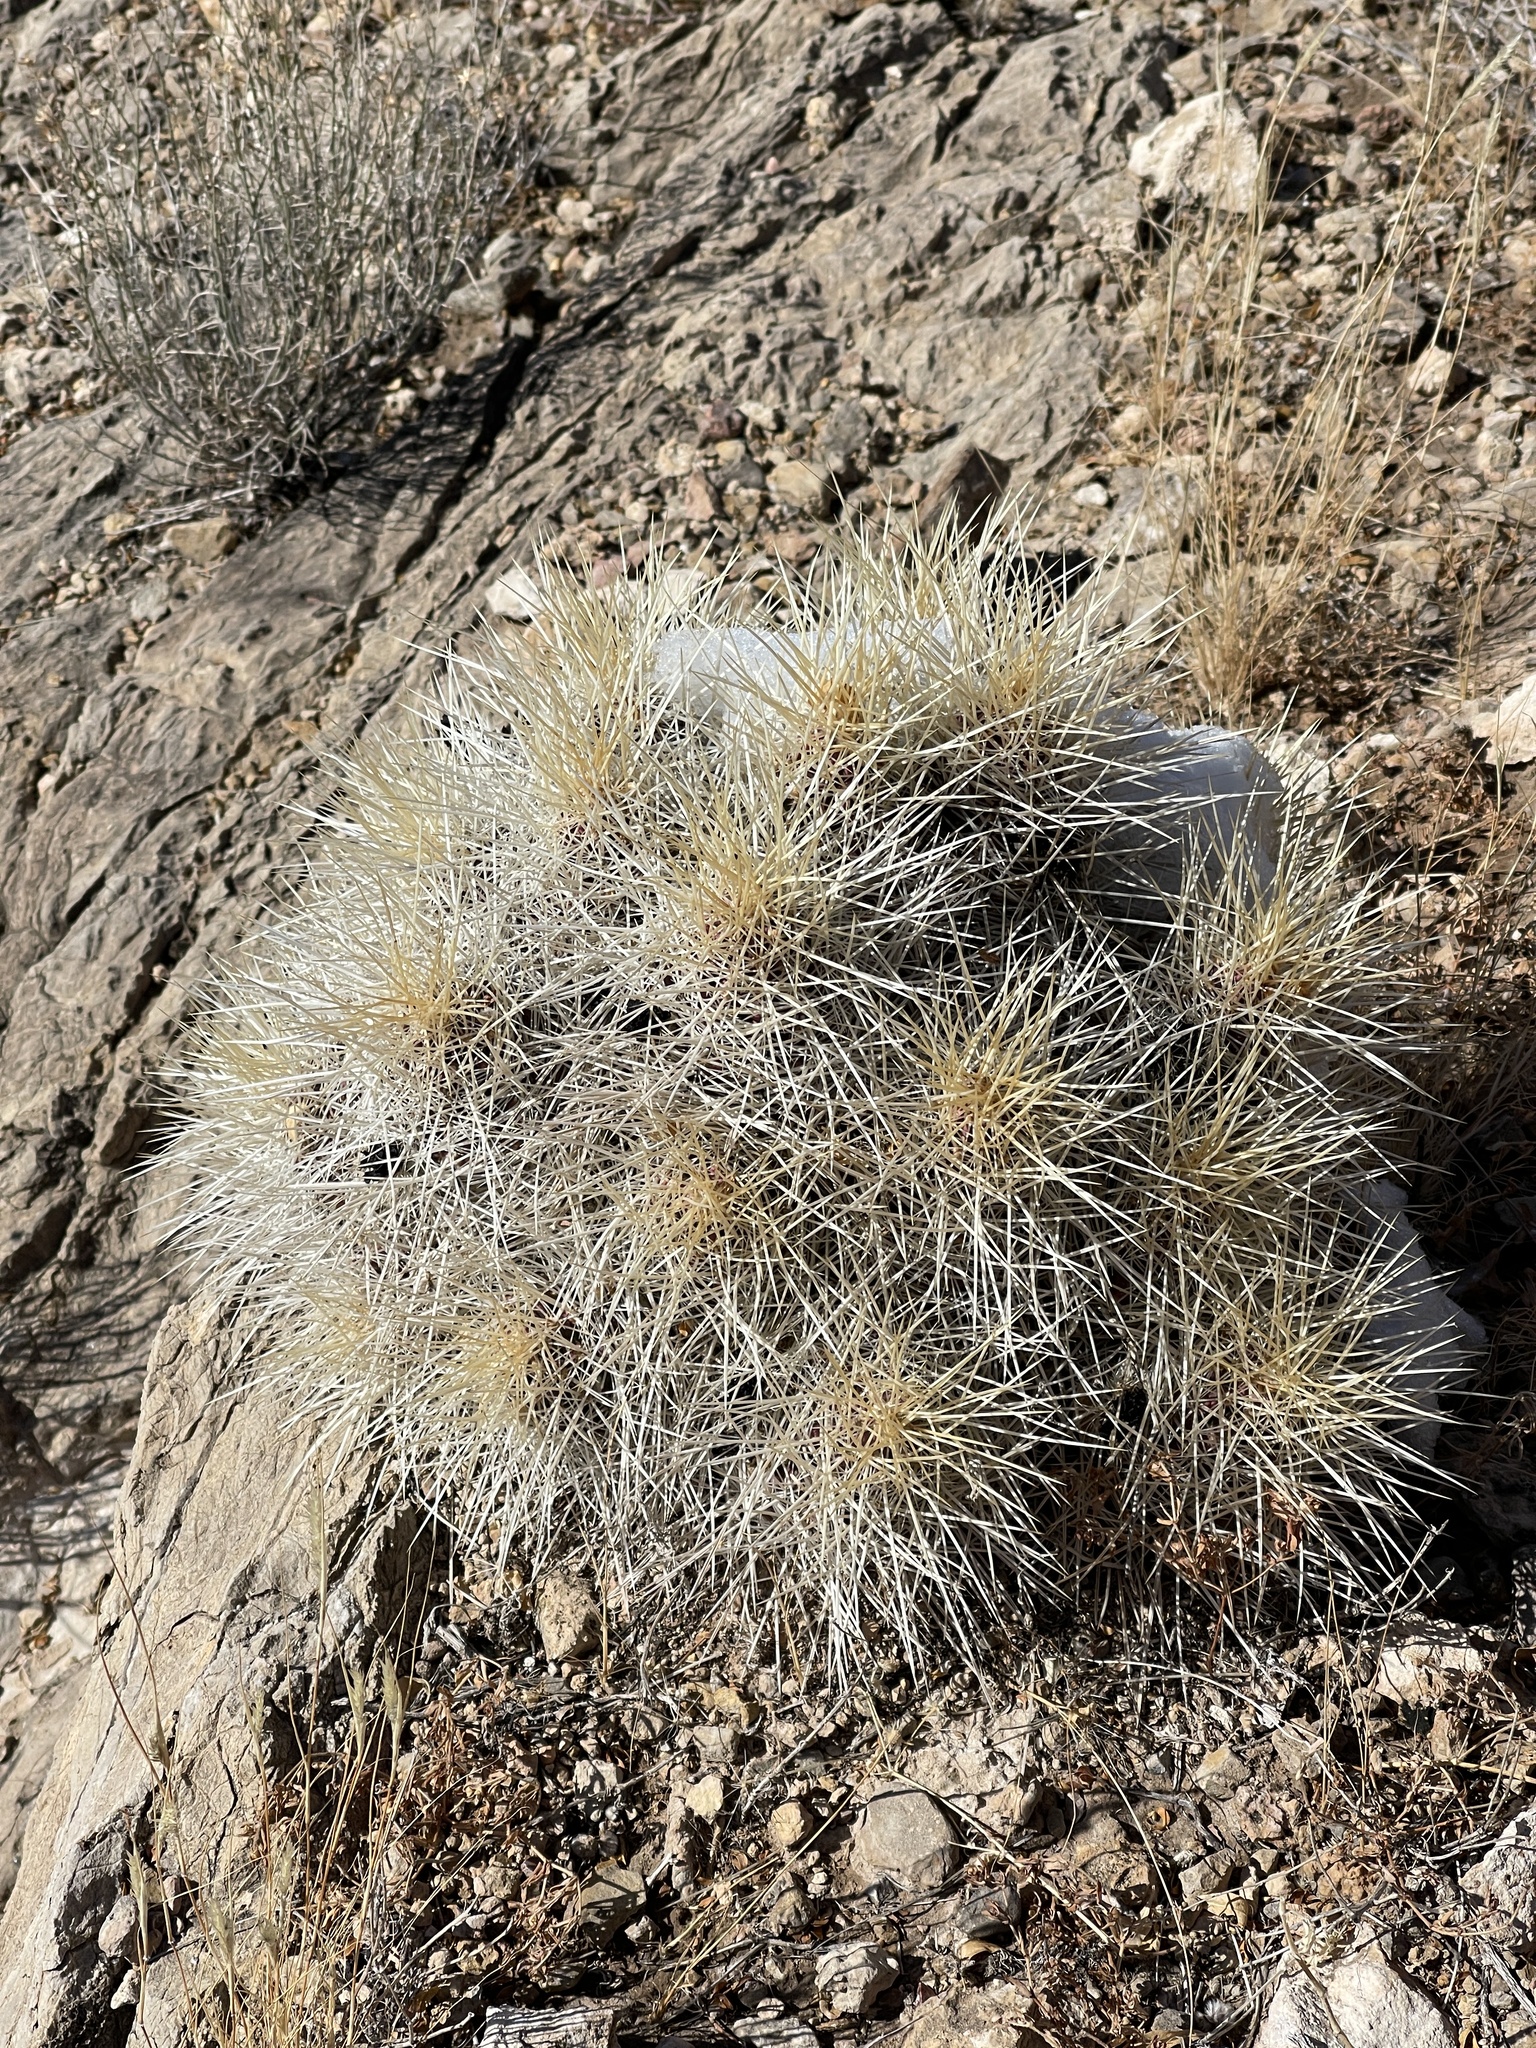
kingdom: Plantae
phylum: Tracheophyta
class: Magnoliopsida
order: Caryophyllales
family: Cactaceae
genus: Echinocereus
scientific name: Echinocereus stramineus
